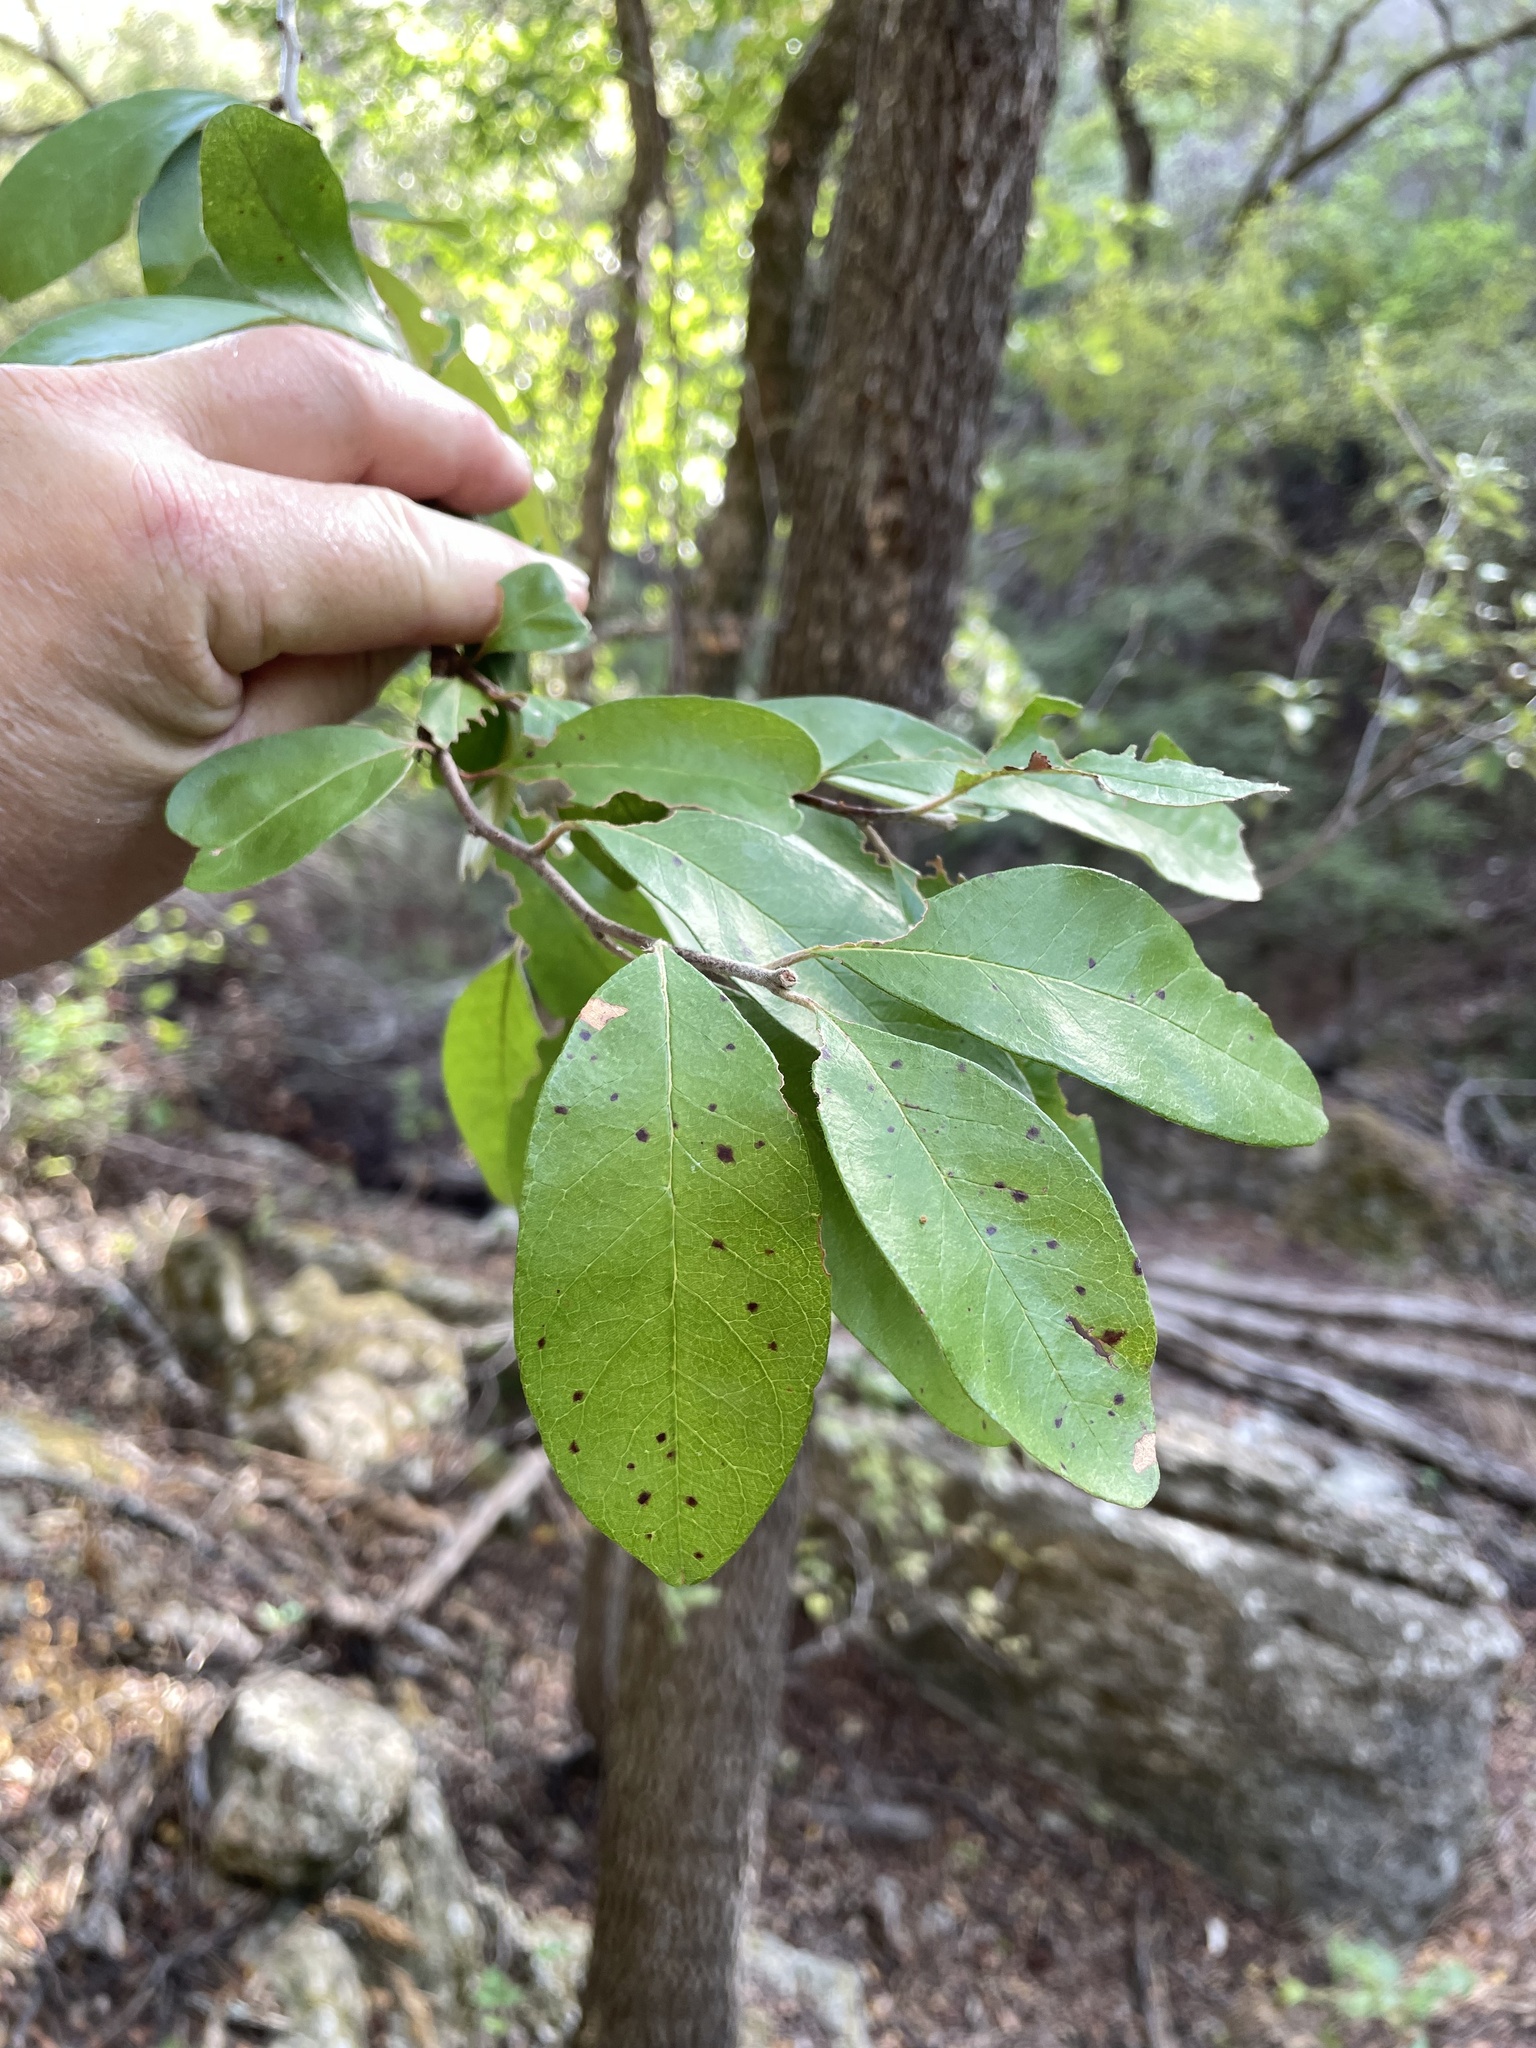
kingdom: Plantae
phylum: Tracheophyta
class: Magnoliopsida
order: Ericales
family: Sapotaceae
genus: Sideroxylon
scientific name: Sideroxylon lanuginosum
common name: Chittamwood
